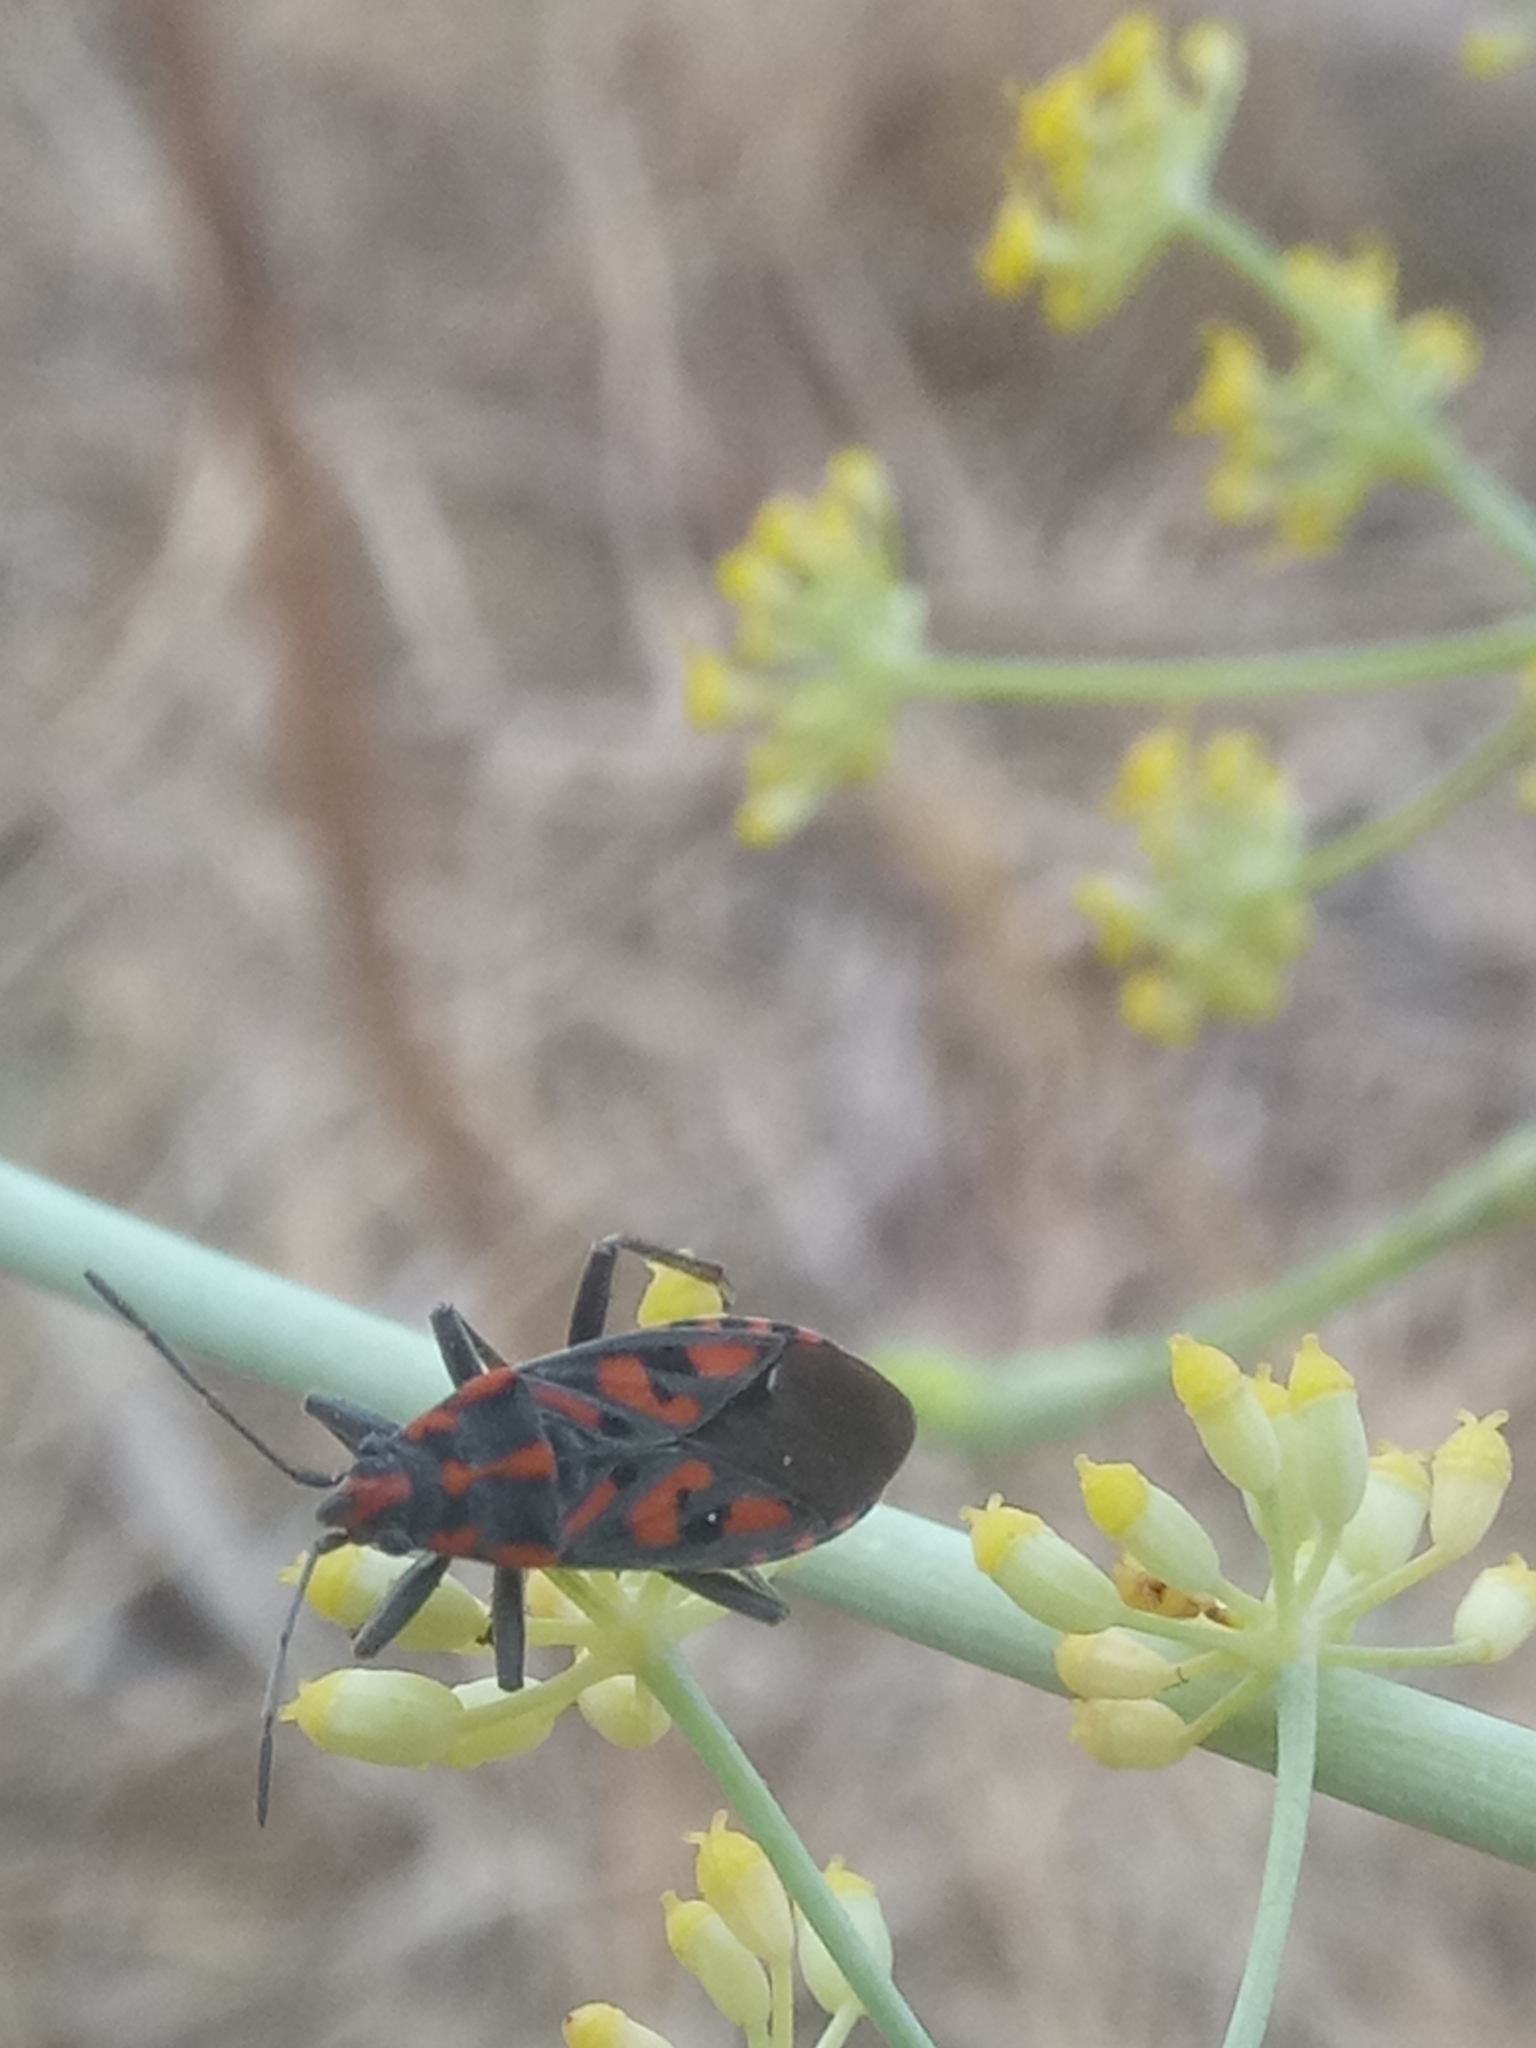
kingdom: Animalia
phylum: Arthropoda
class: Insecta
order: Hemiptera
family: Lygaeidae
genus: Spilostethus
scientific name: Spilostethus saxatilis
